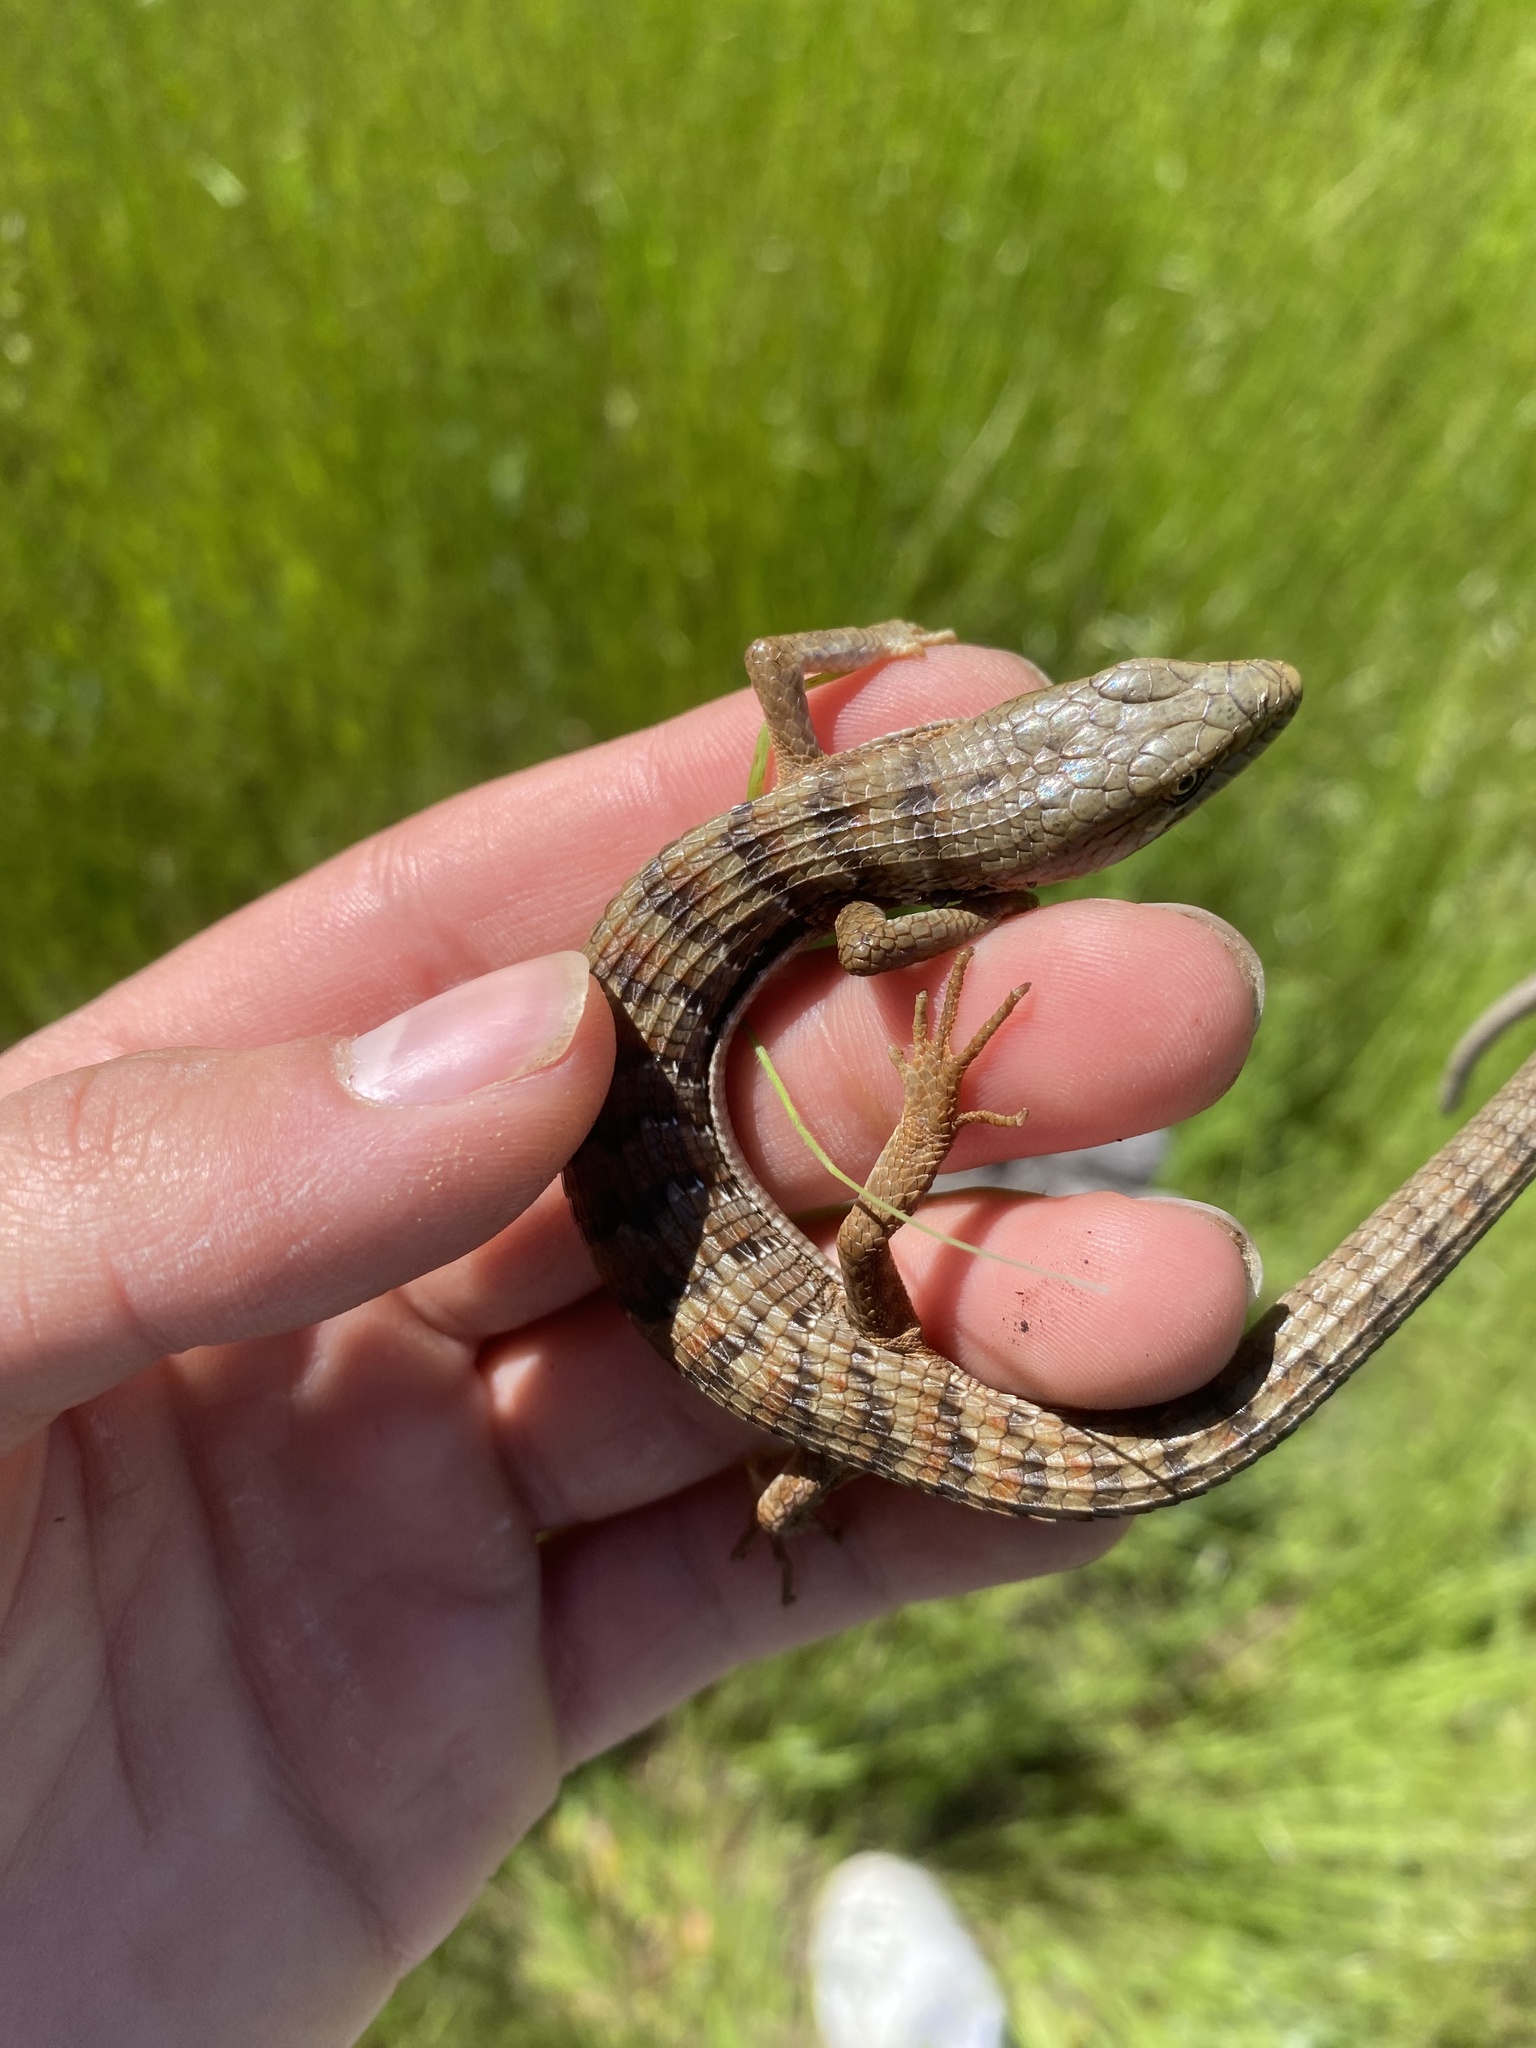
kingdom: Animalia
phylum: Chordata
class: Squamata
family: Anguidae
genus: Elgaria
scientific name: Elgaria multicarinata
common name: Southern alligator lizard
